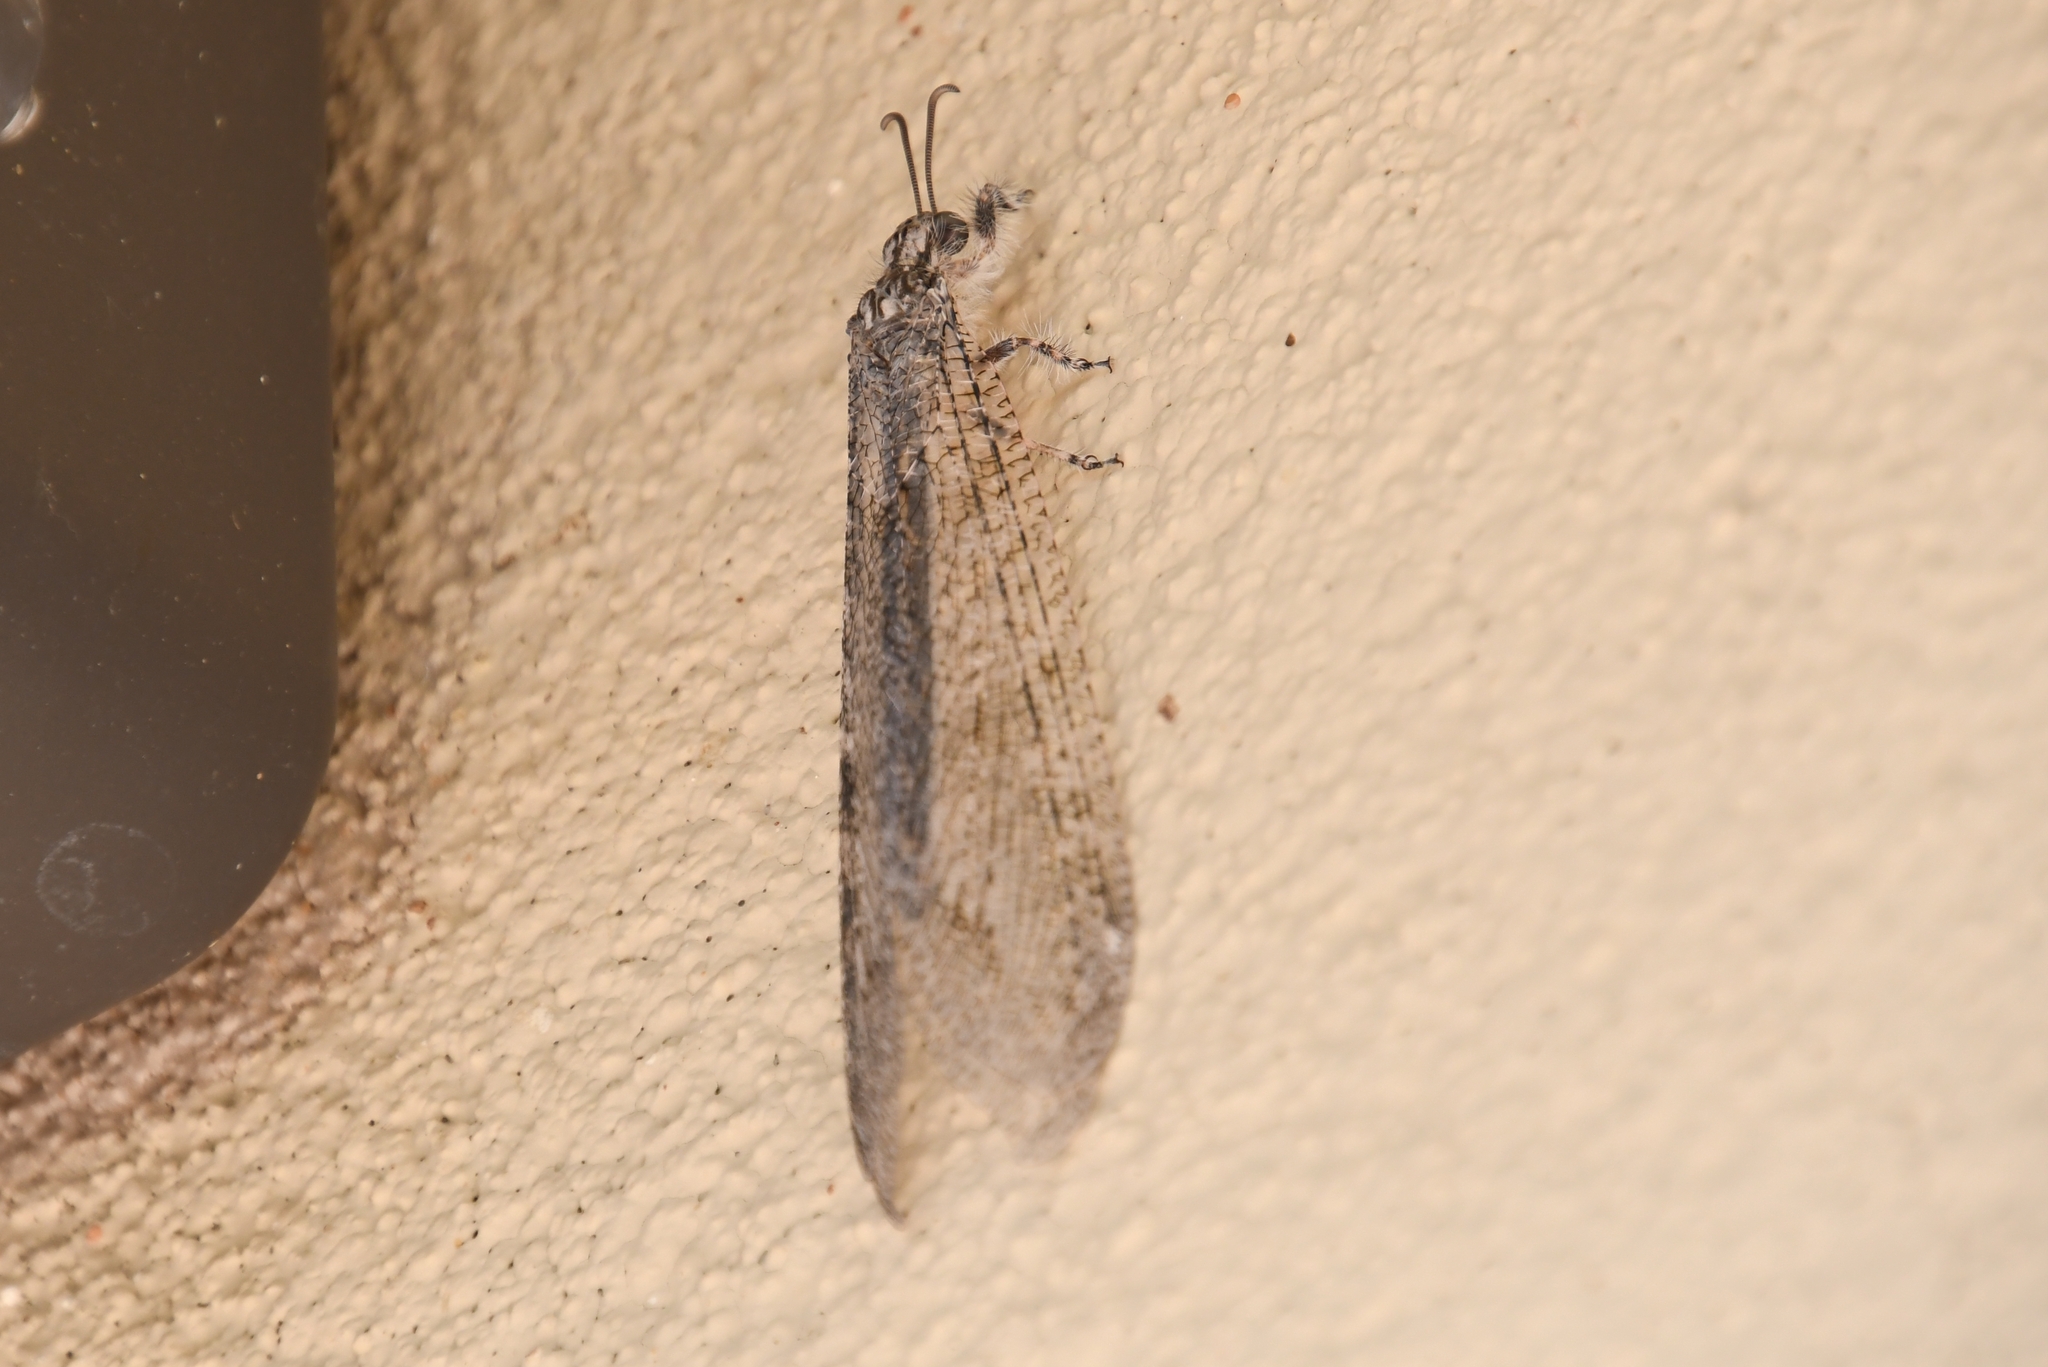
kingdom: Animalia
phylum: Arthropoda
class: Insecta
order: Neuroptera
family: Myrmeleontidae
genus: Vella
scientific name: Vella fallax
